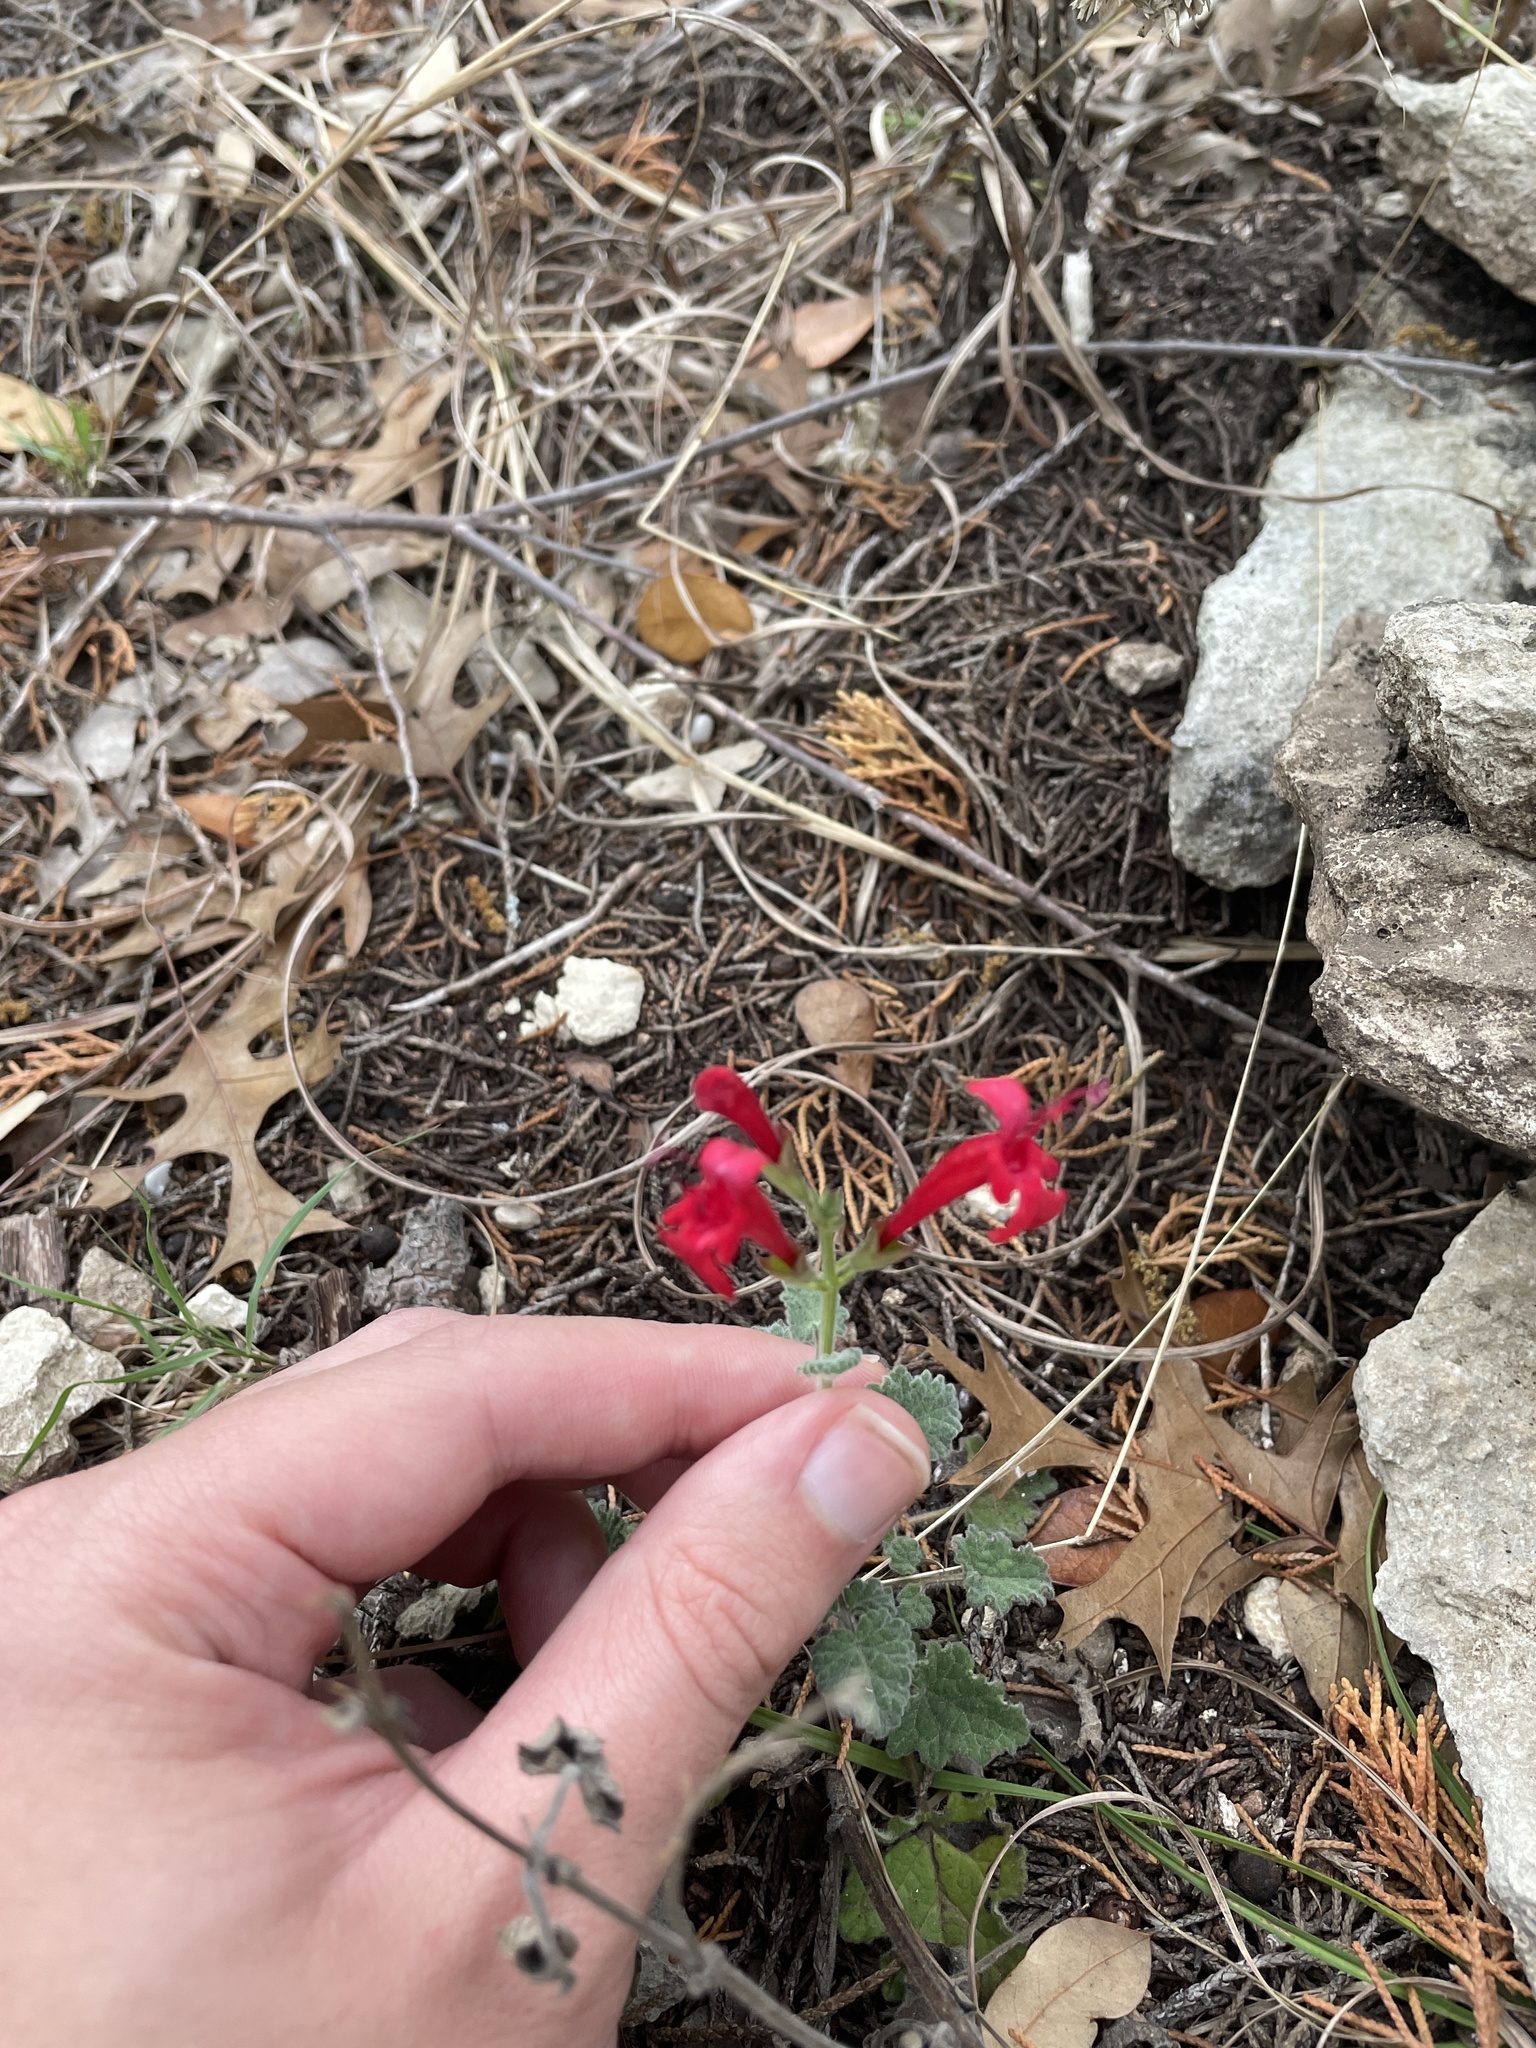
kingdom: Plantae
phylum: Tracheophyta
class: Magnoliopsida
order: Lamiales
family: Lamiaceae
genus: Salvia
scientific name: Salvia roemeriana
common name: Cedar sage
